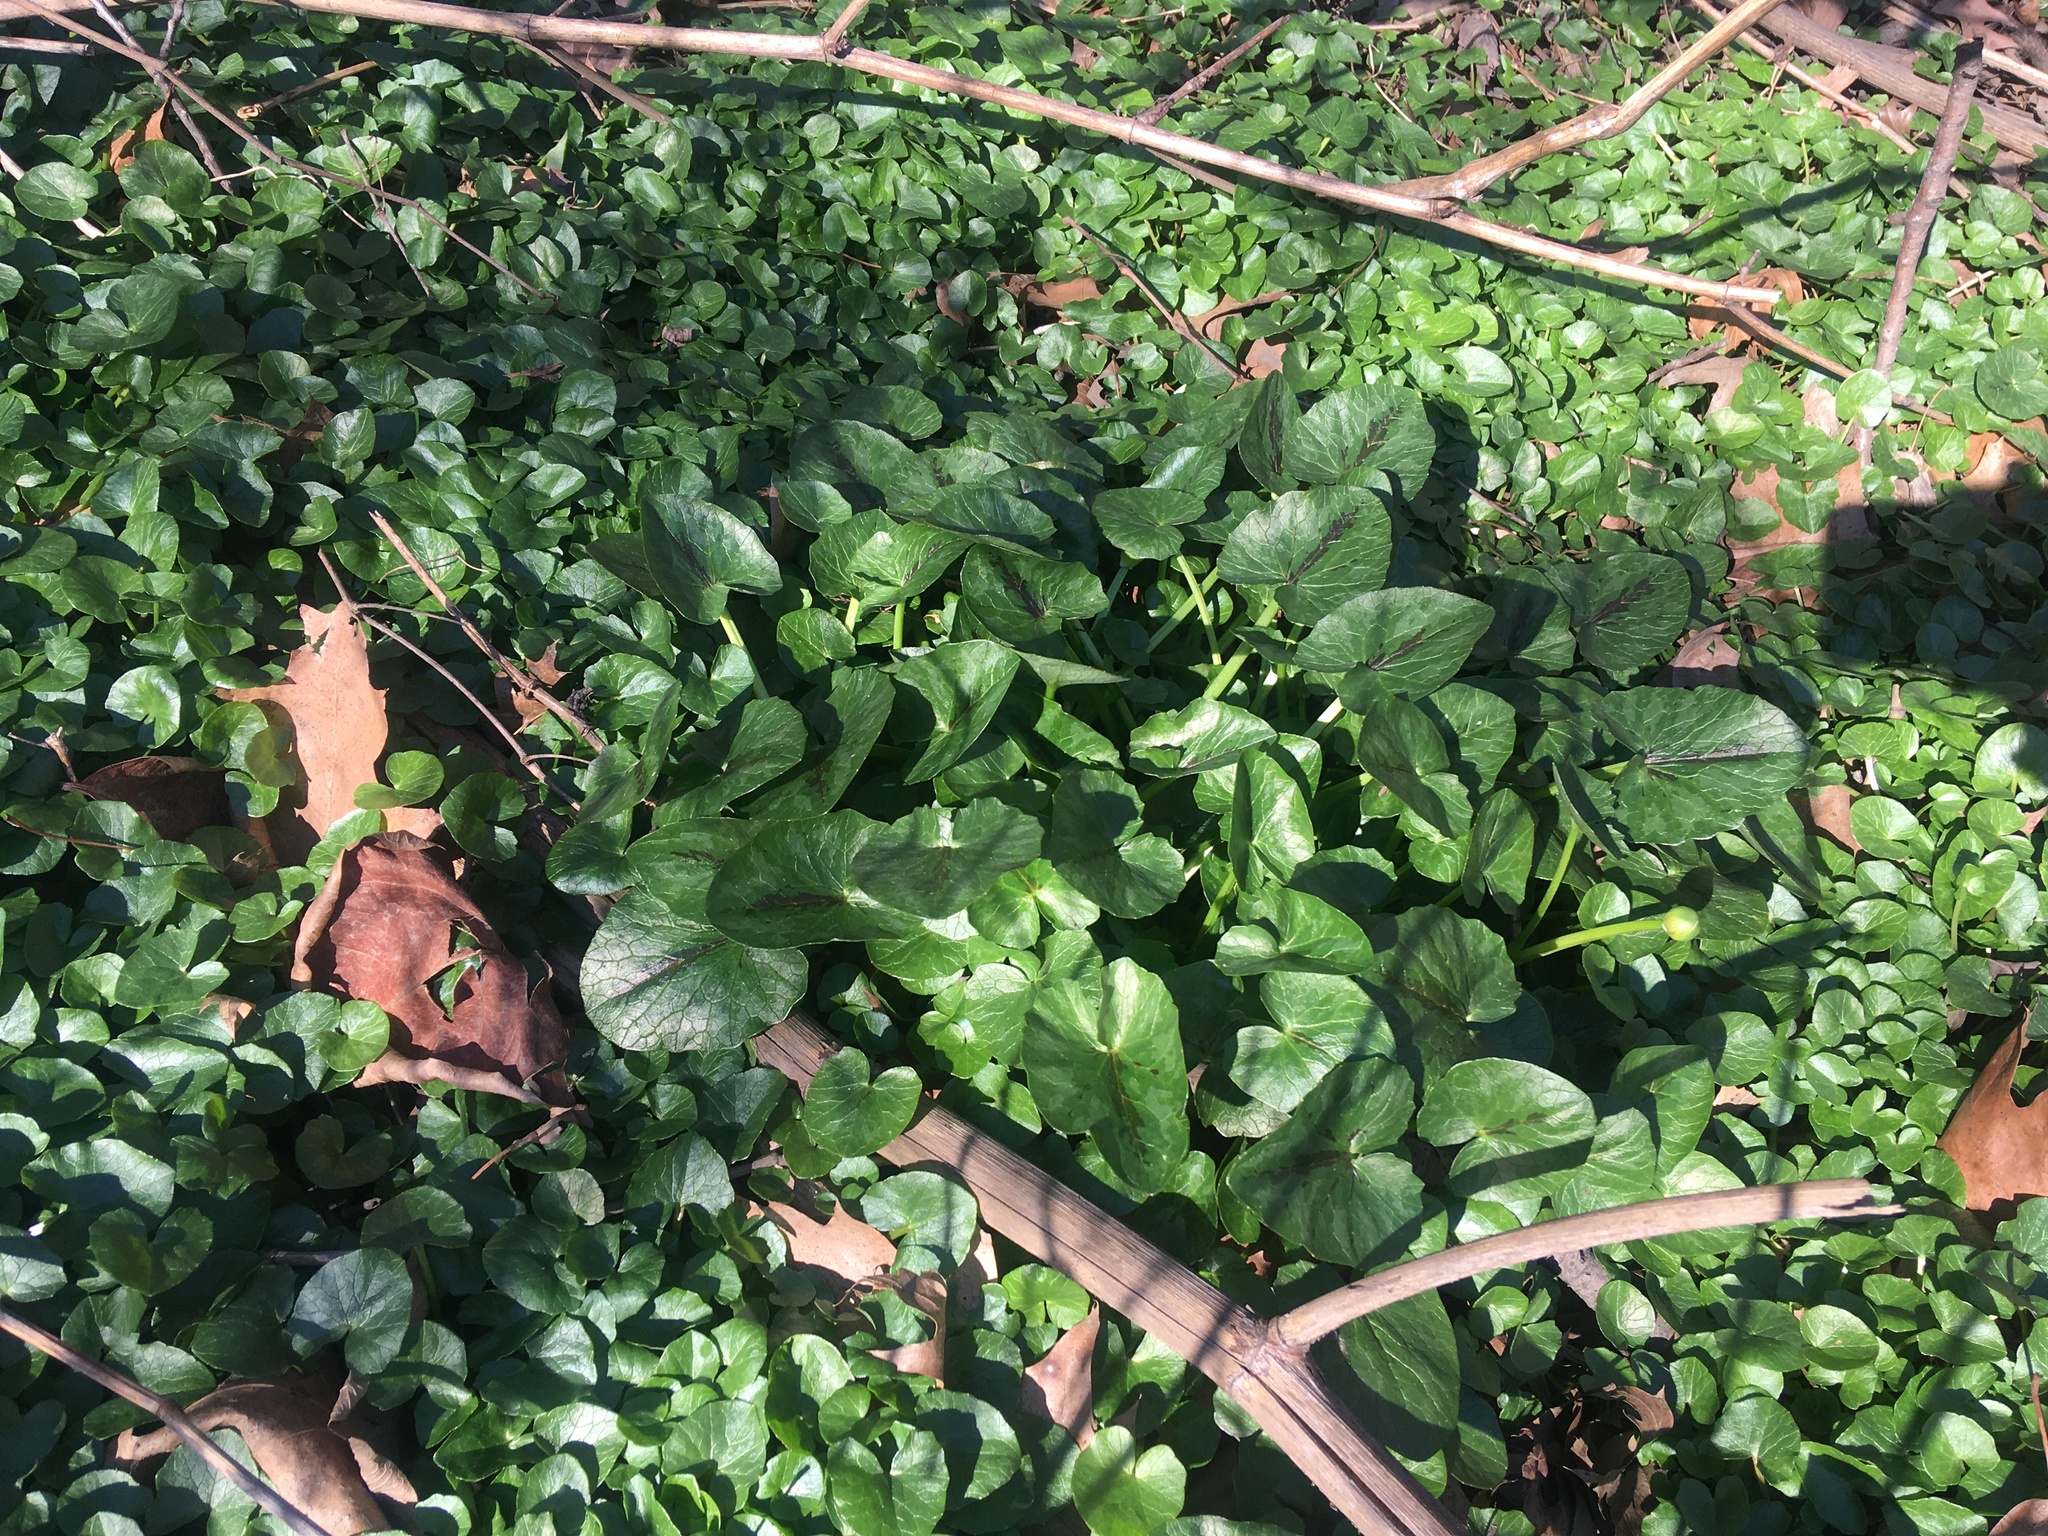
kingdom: Plantae
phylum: Tracheophyta
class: Magnoliopsida
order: Ranunculales
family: Ranunculaceae
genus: Ficaria
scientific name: Ficaria verna
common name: Lesser celandine
